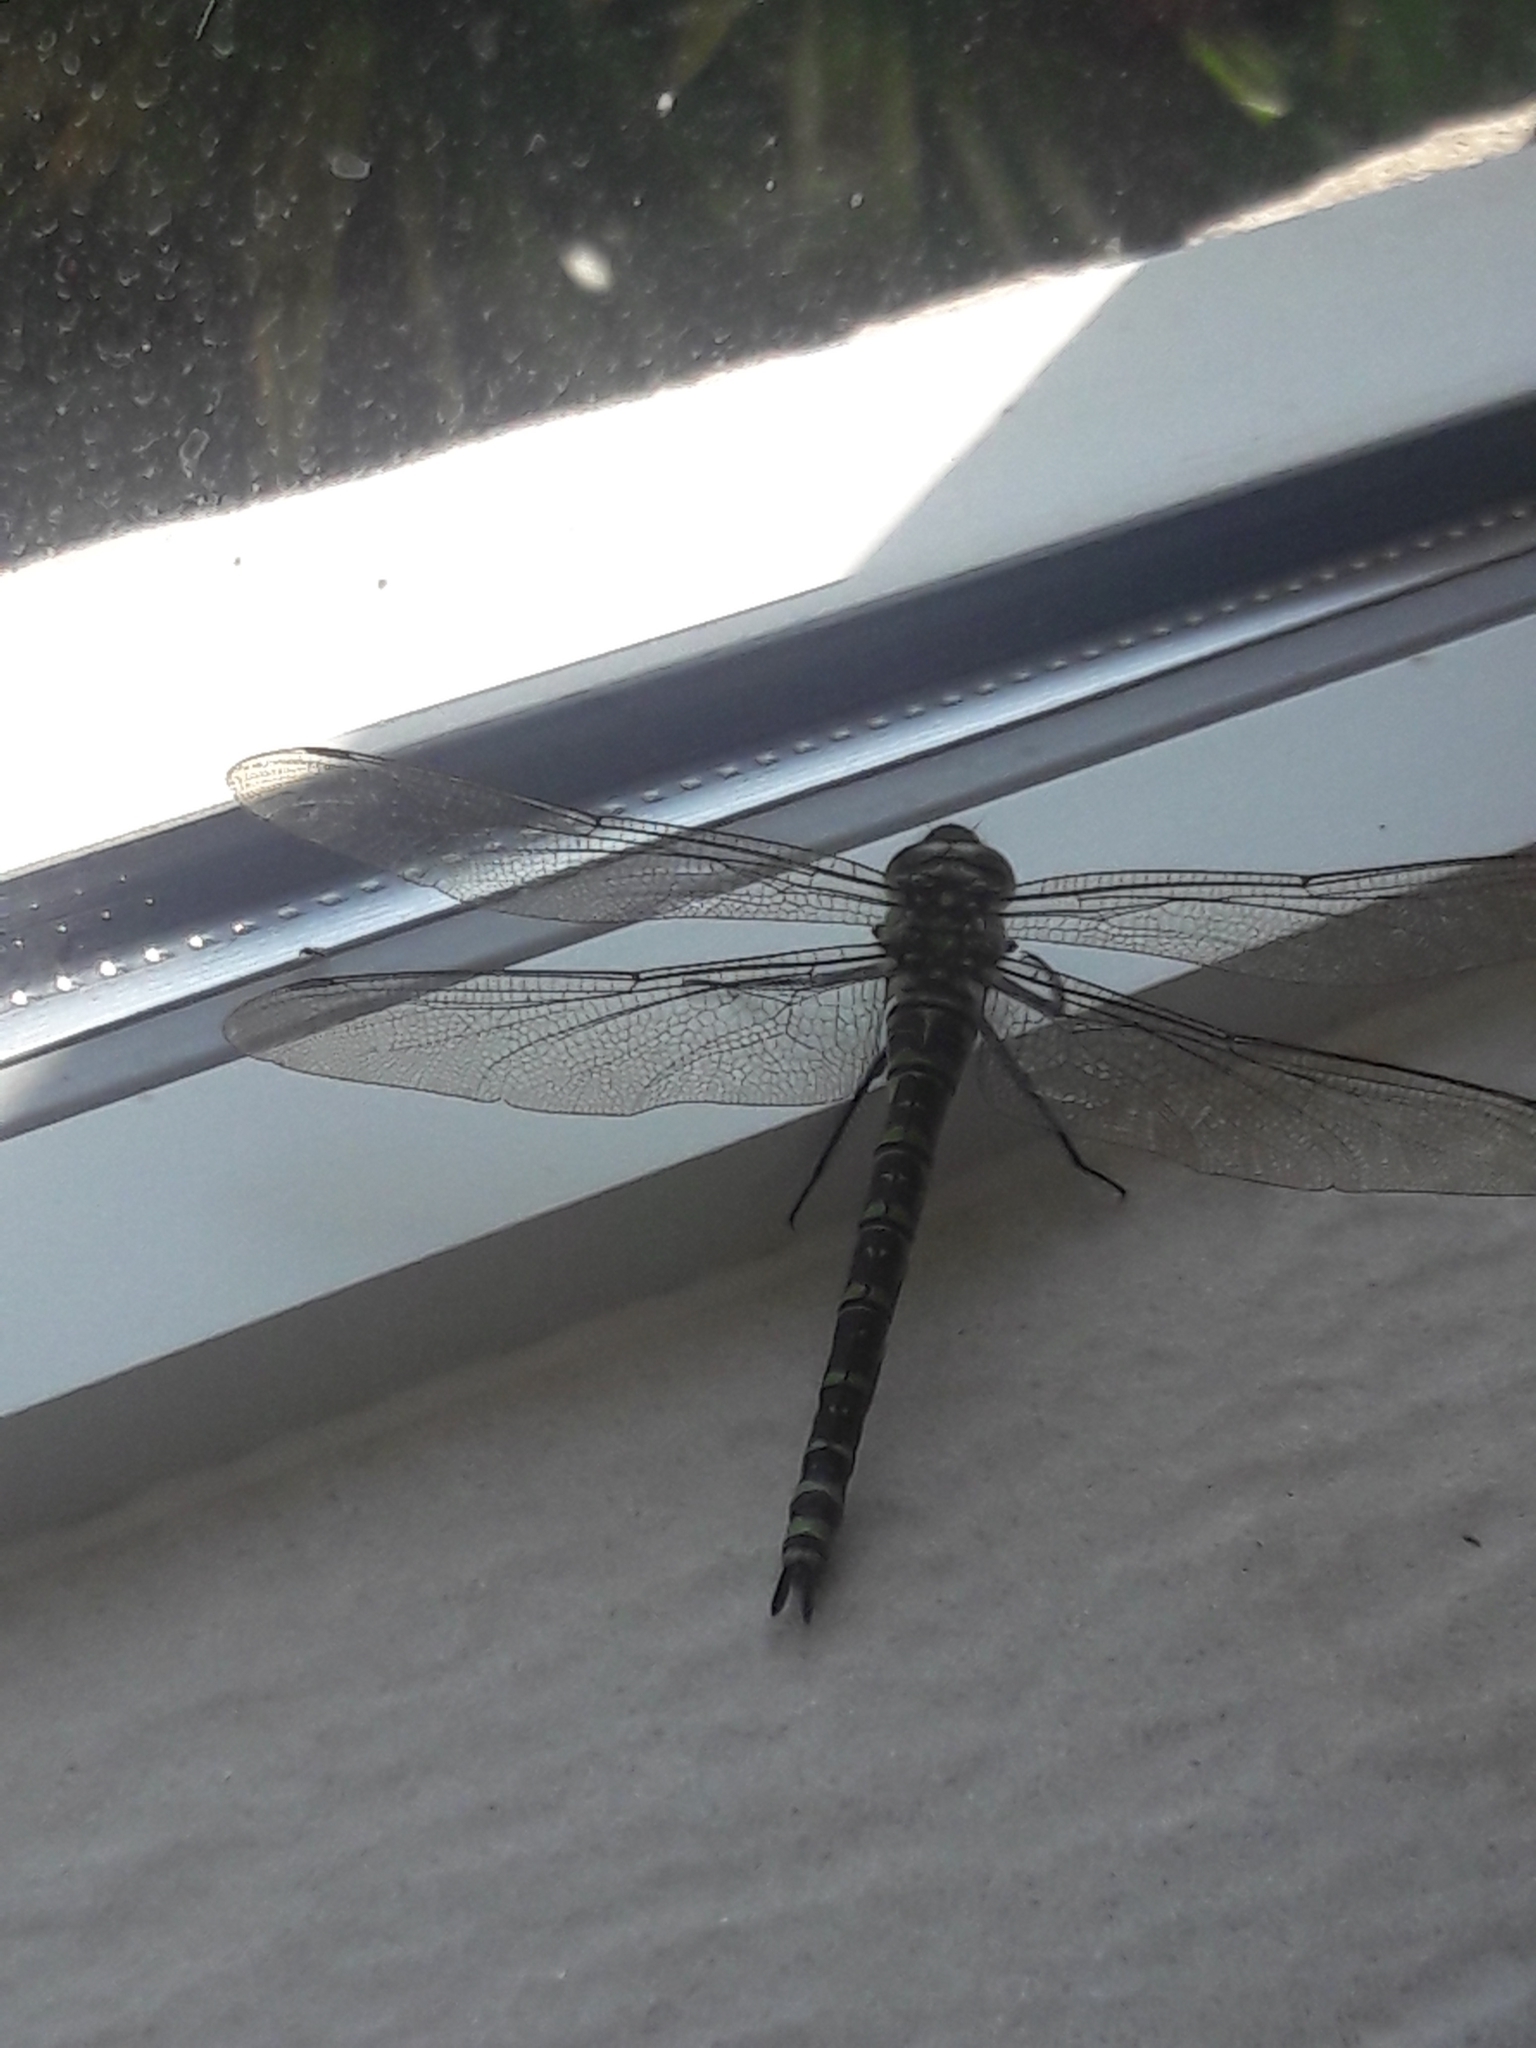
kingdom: Animalia
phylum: Arthropoda
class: Insecta
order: Odonata
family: Aeshnidae
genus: Aeshna
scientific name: Aeshna cyanea
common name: Southern hawker
